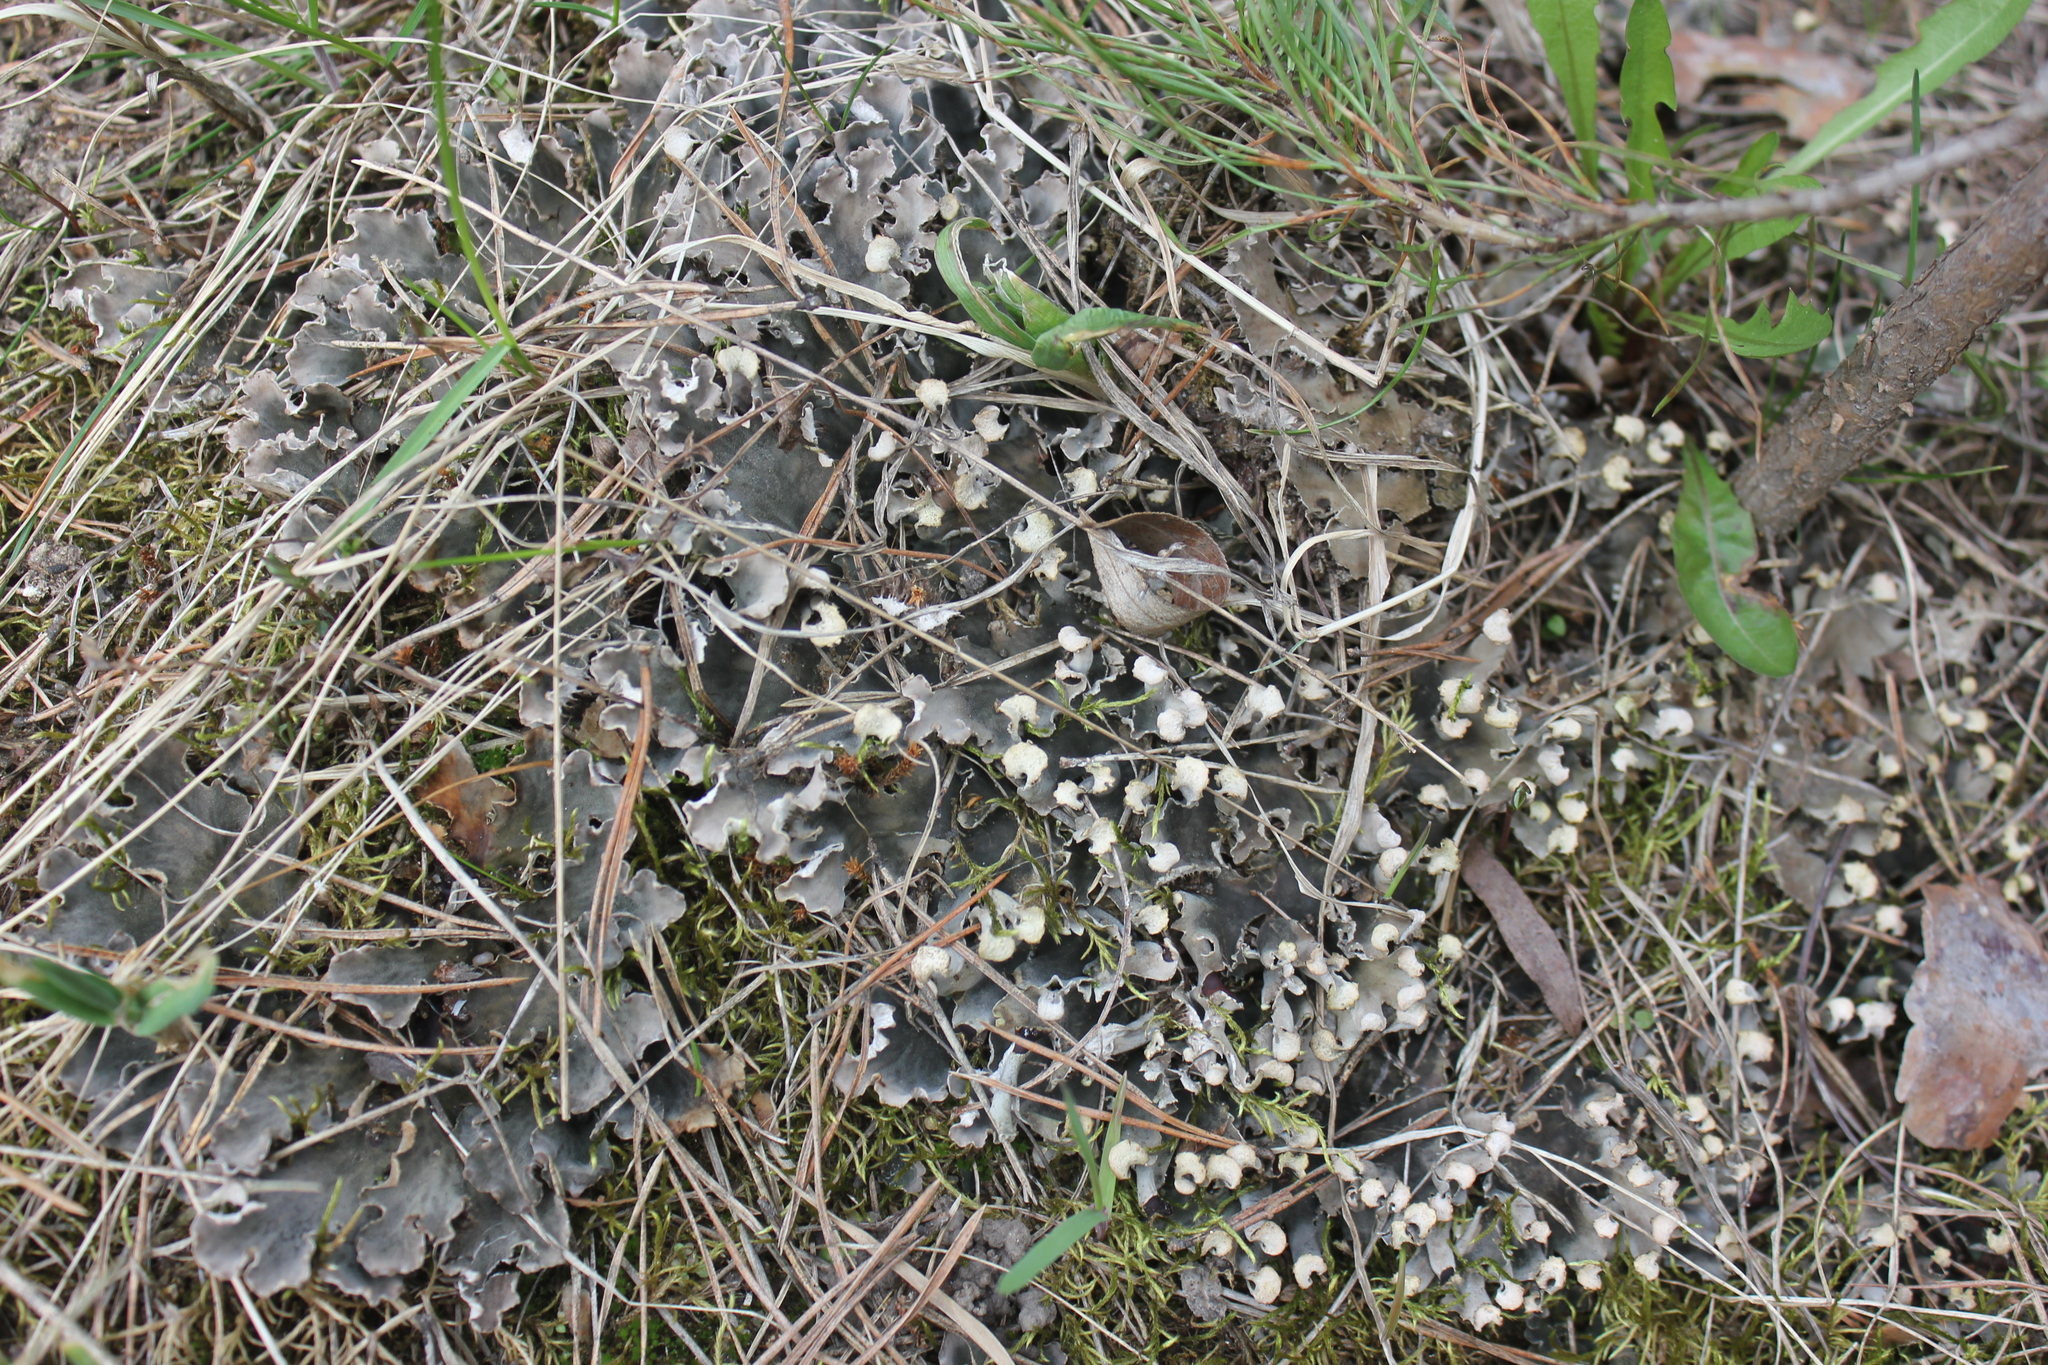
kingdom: Fungi
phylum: Ascomycota
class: Lecanoromycetes
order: Peltigerales
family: Peltigeraceae
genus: Peltigera
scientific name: Peltigera
